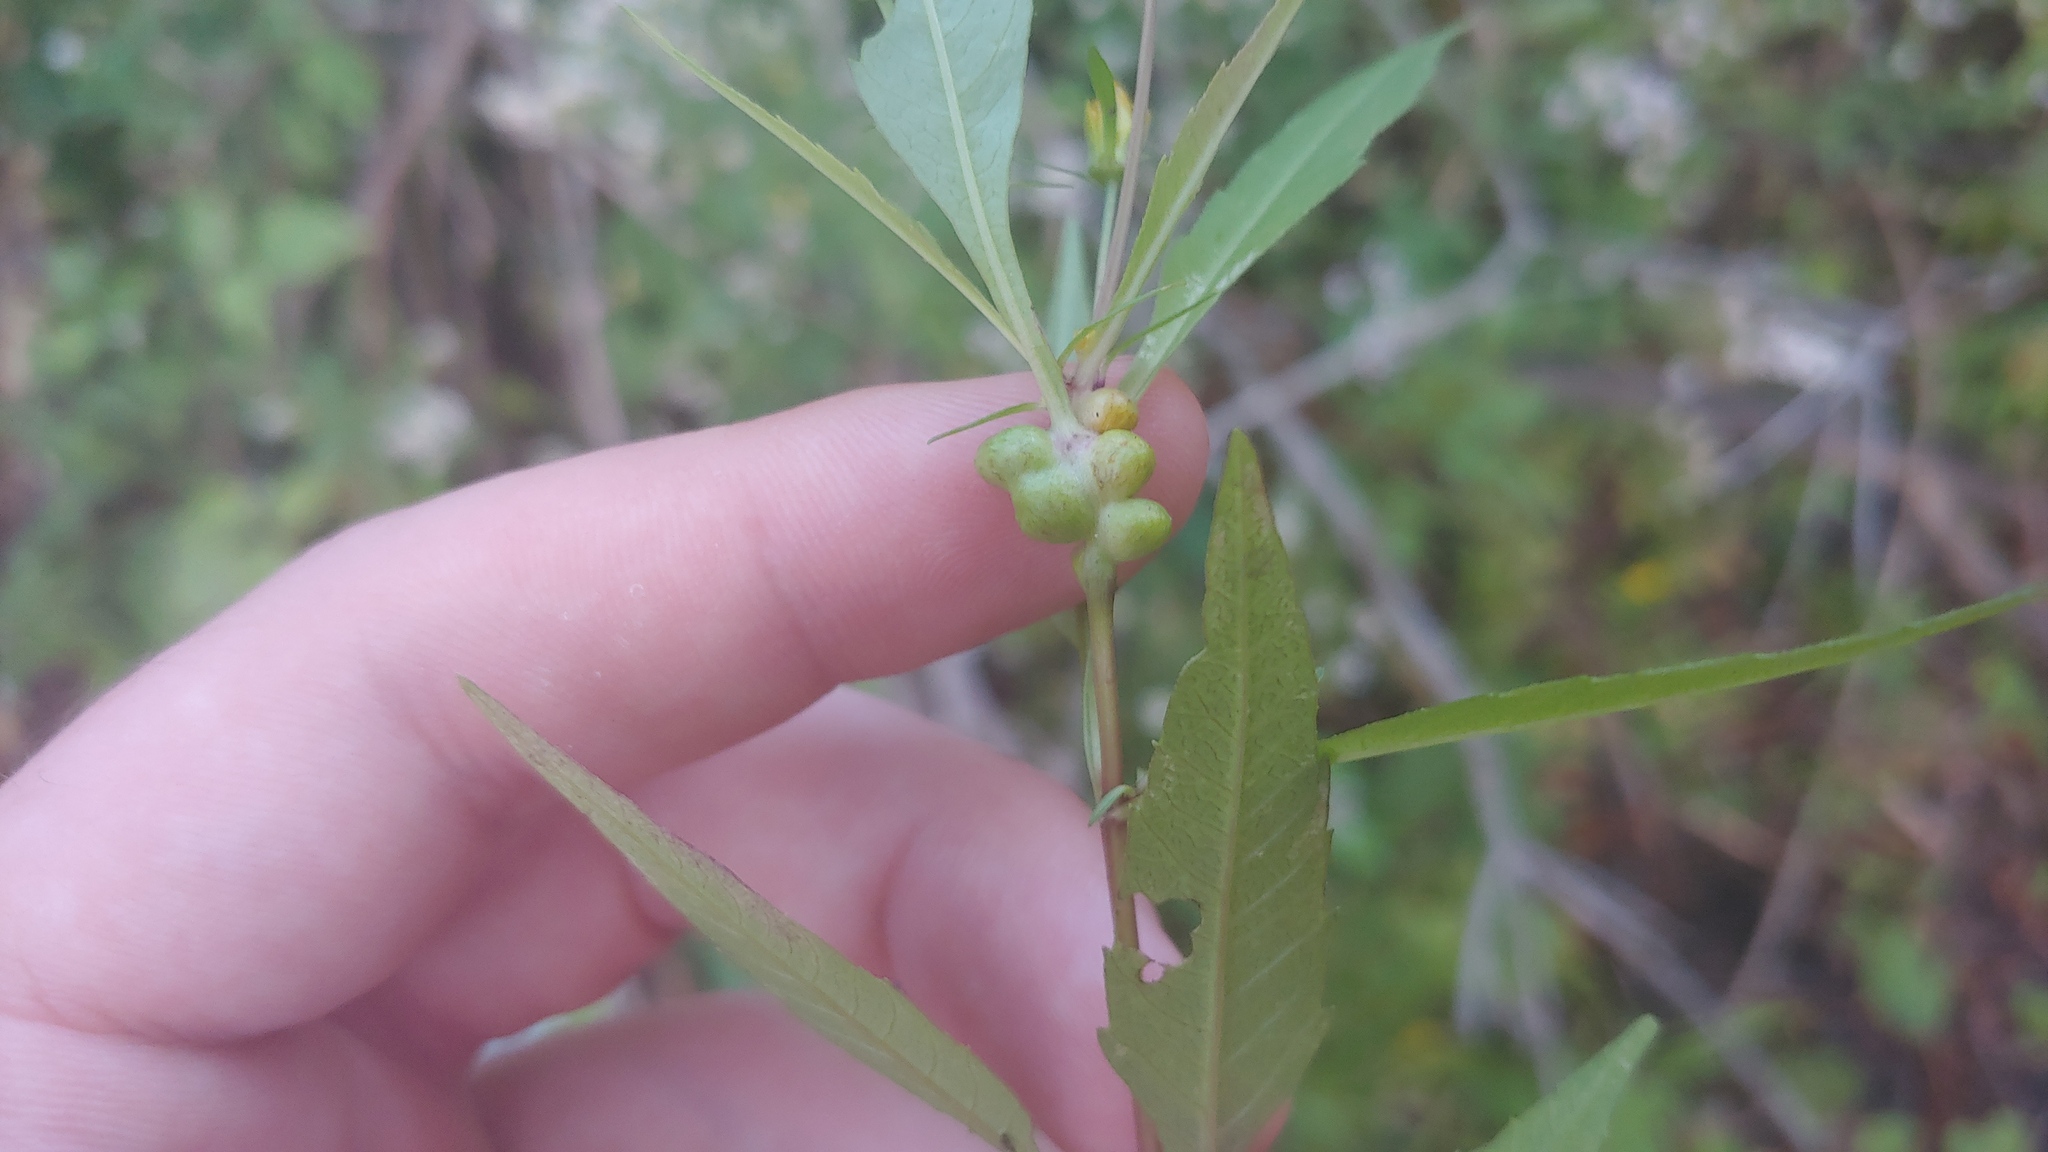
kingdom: Animalia
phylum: Arthropoda
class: Insecta
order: Diptera
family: Cecidomyiidae
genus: Asphondylia
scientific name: Asphondylia ovata
